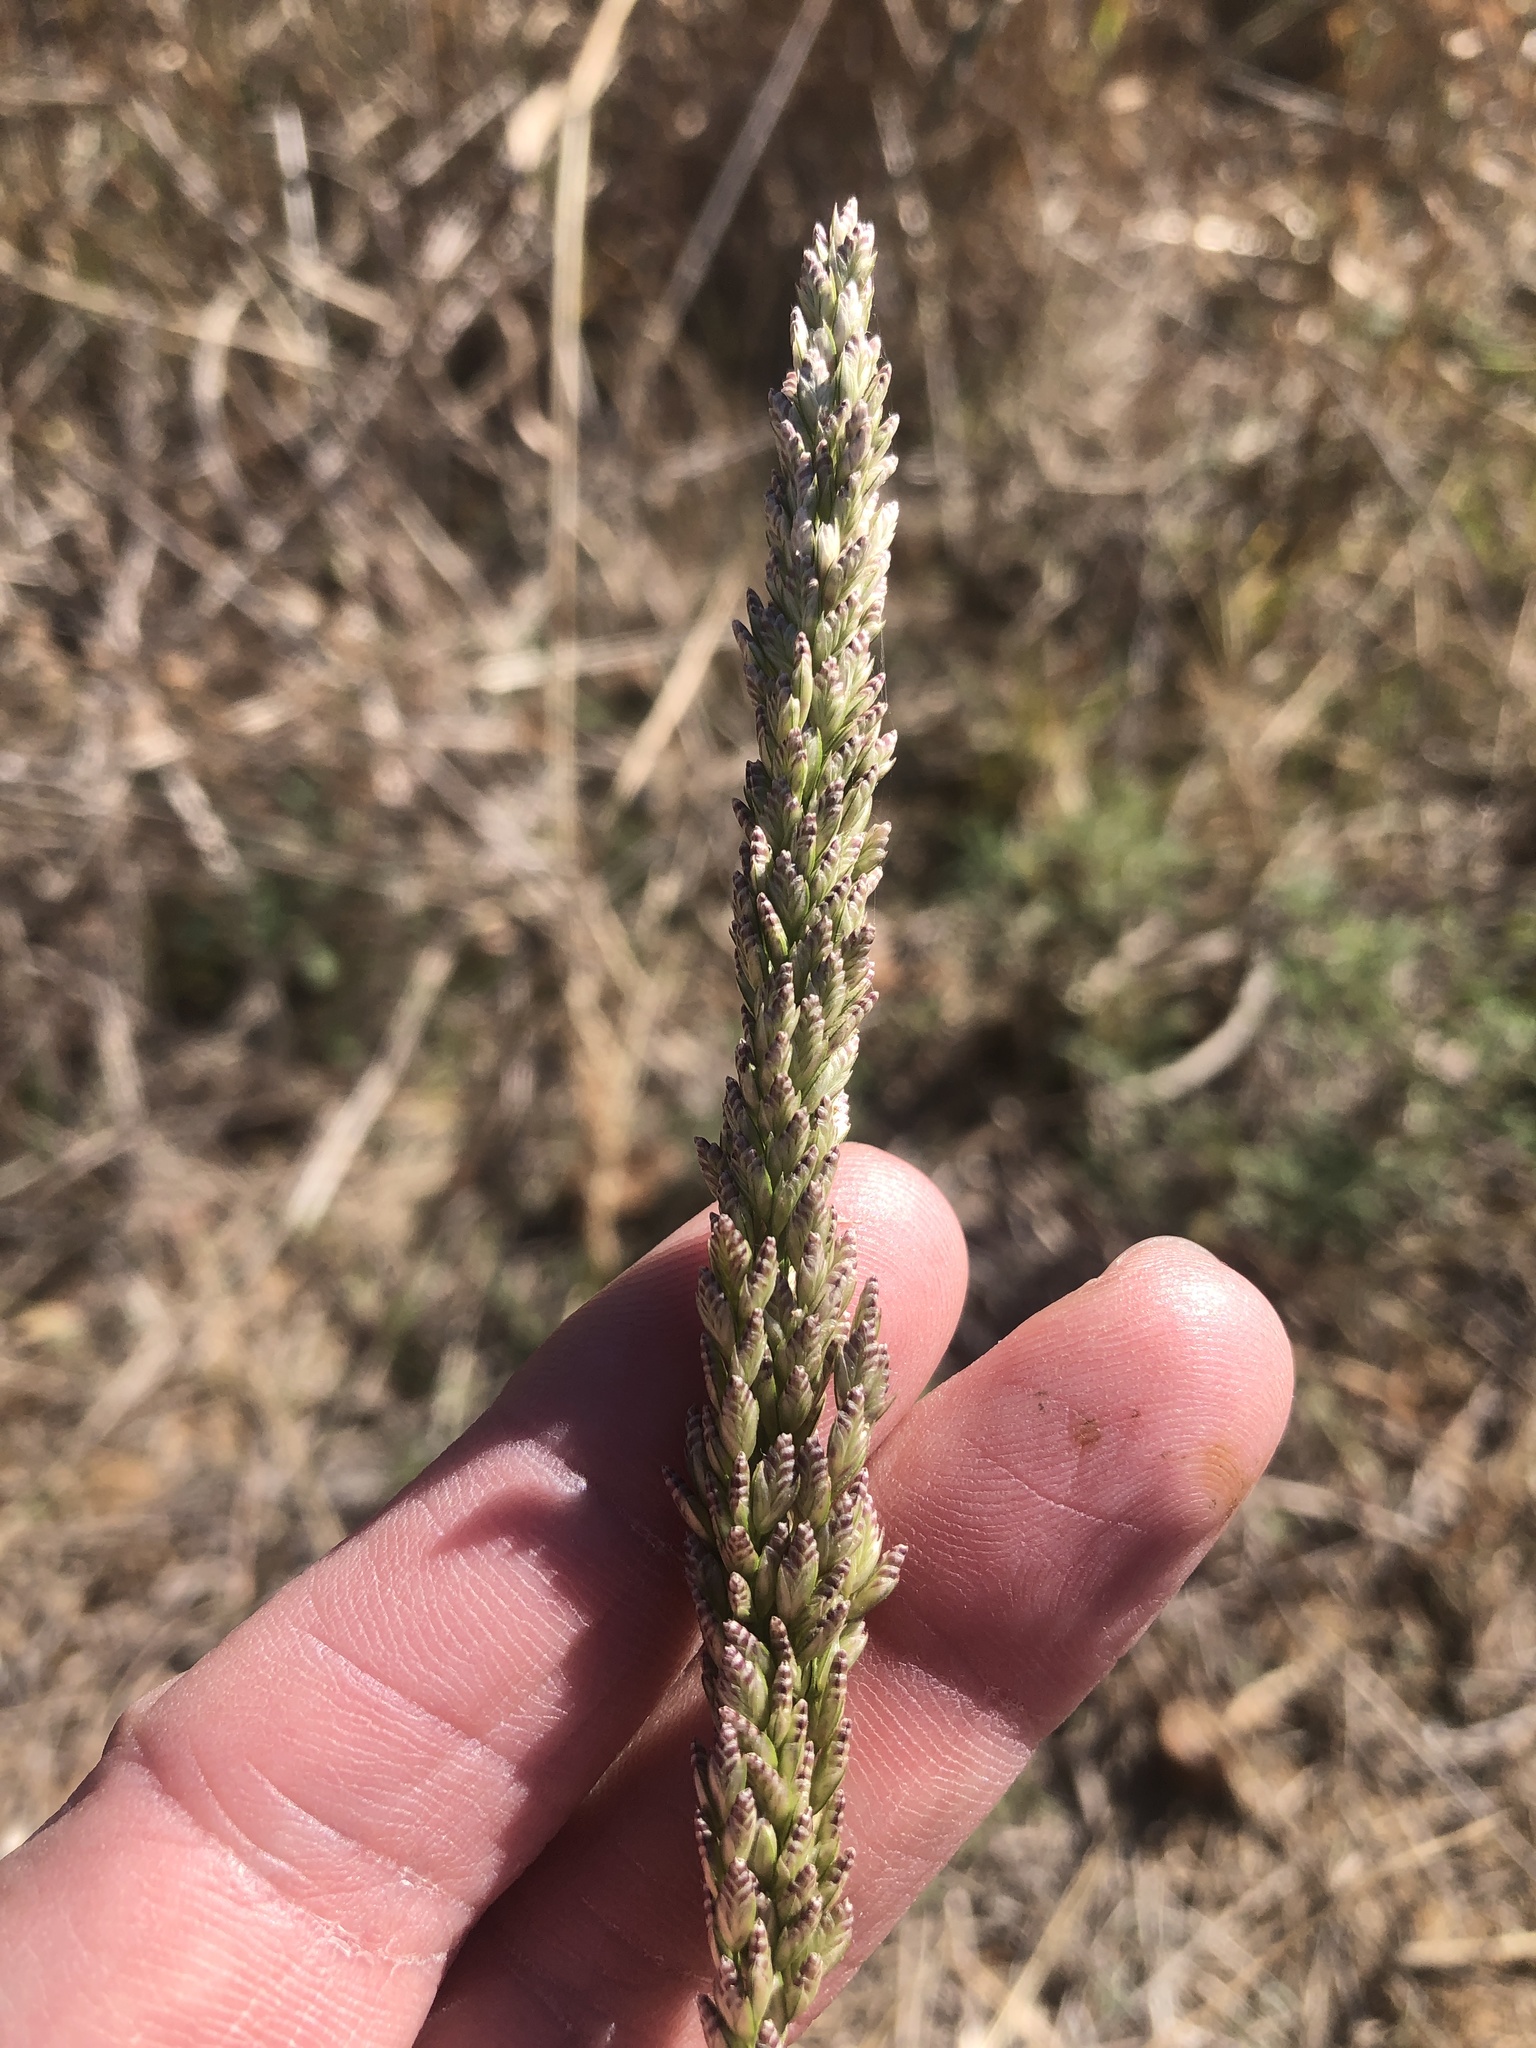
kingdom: Plantae
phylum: Tracheophyta
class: Liliopsida
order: Poales
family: Poaceae
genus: Tridens
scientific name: Tridens albescens
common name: White tridens
